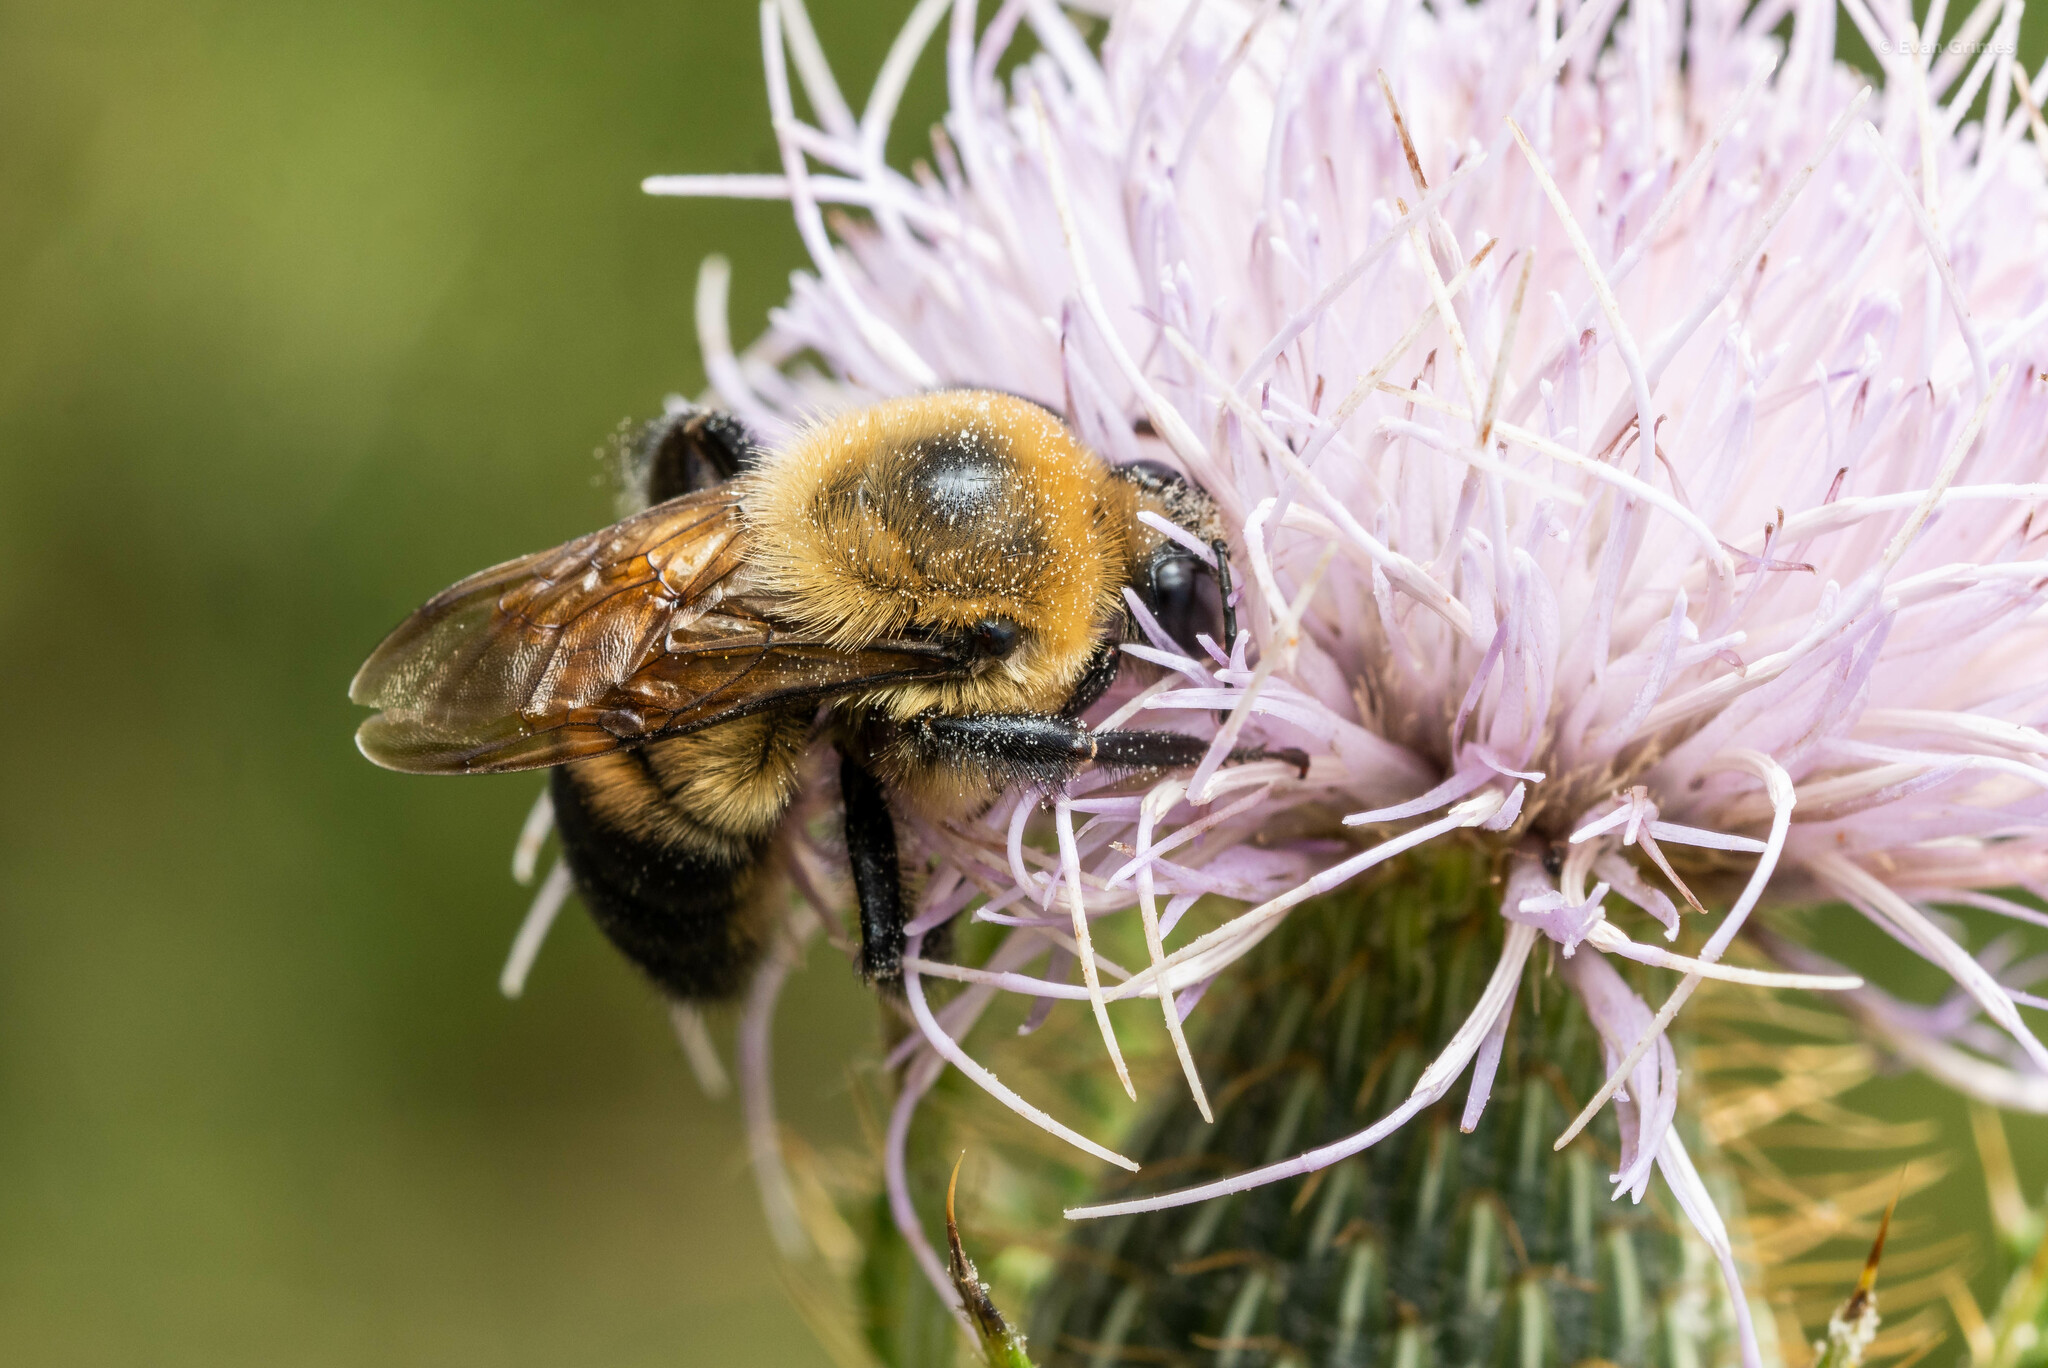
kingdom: Animalia
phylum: Arthropoda
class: Insecta
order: Hymenoptera
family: Apidae
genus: Bombus
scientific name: Bombus griseocollis
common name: Brown-belted bumble bee
